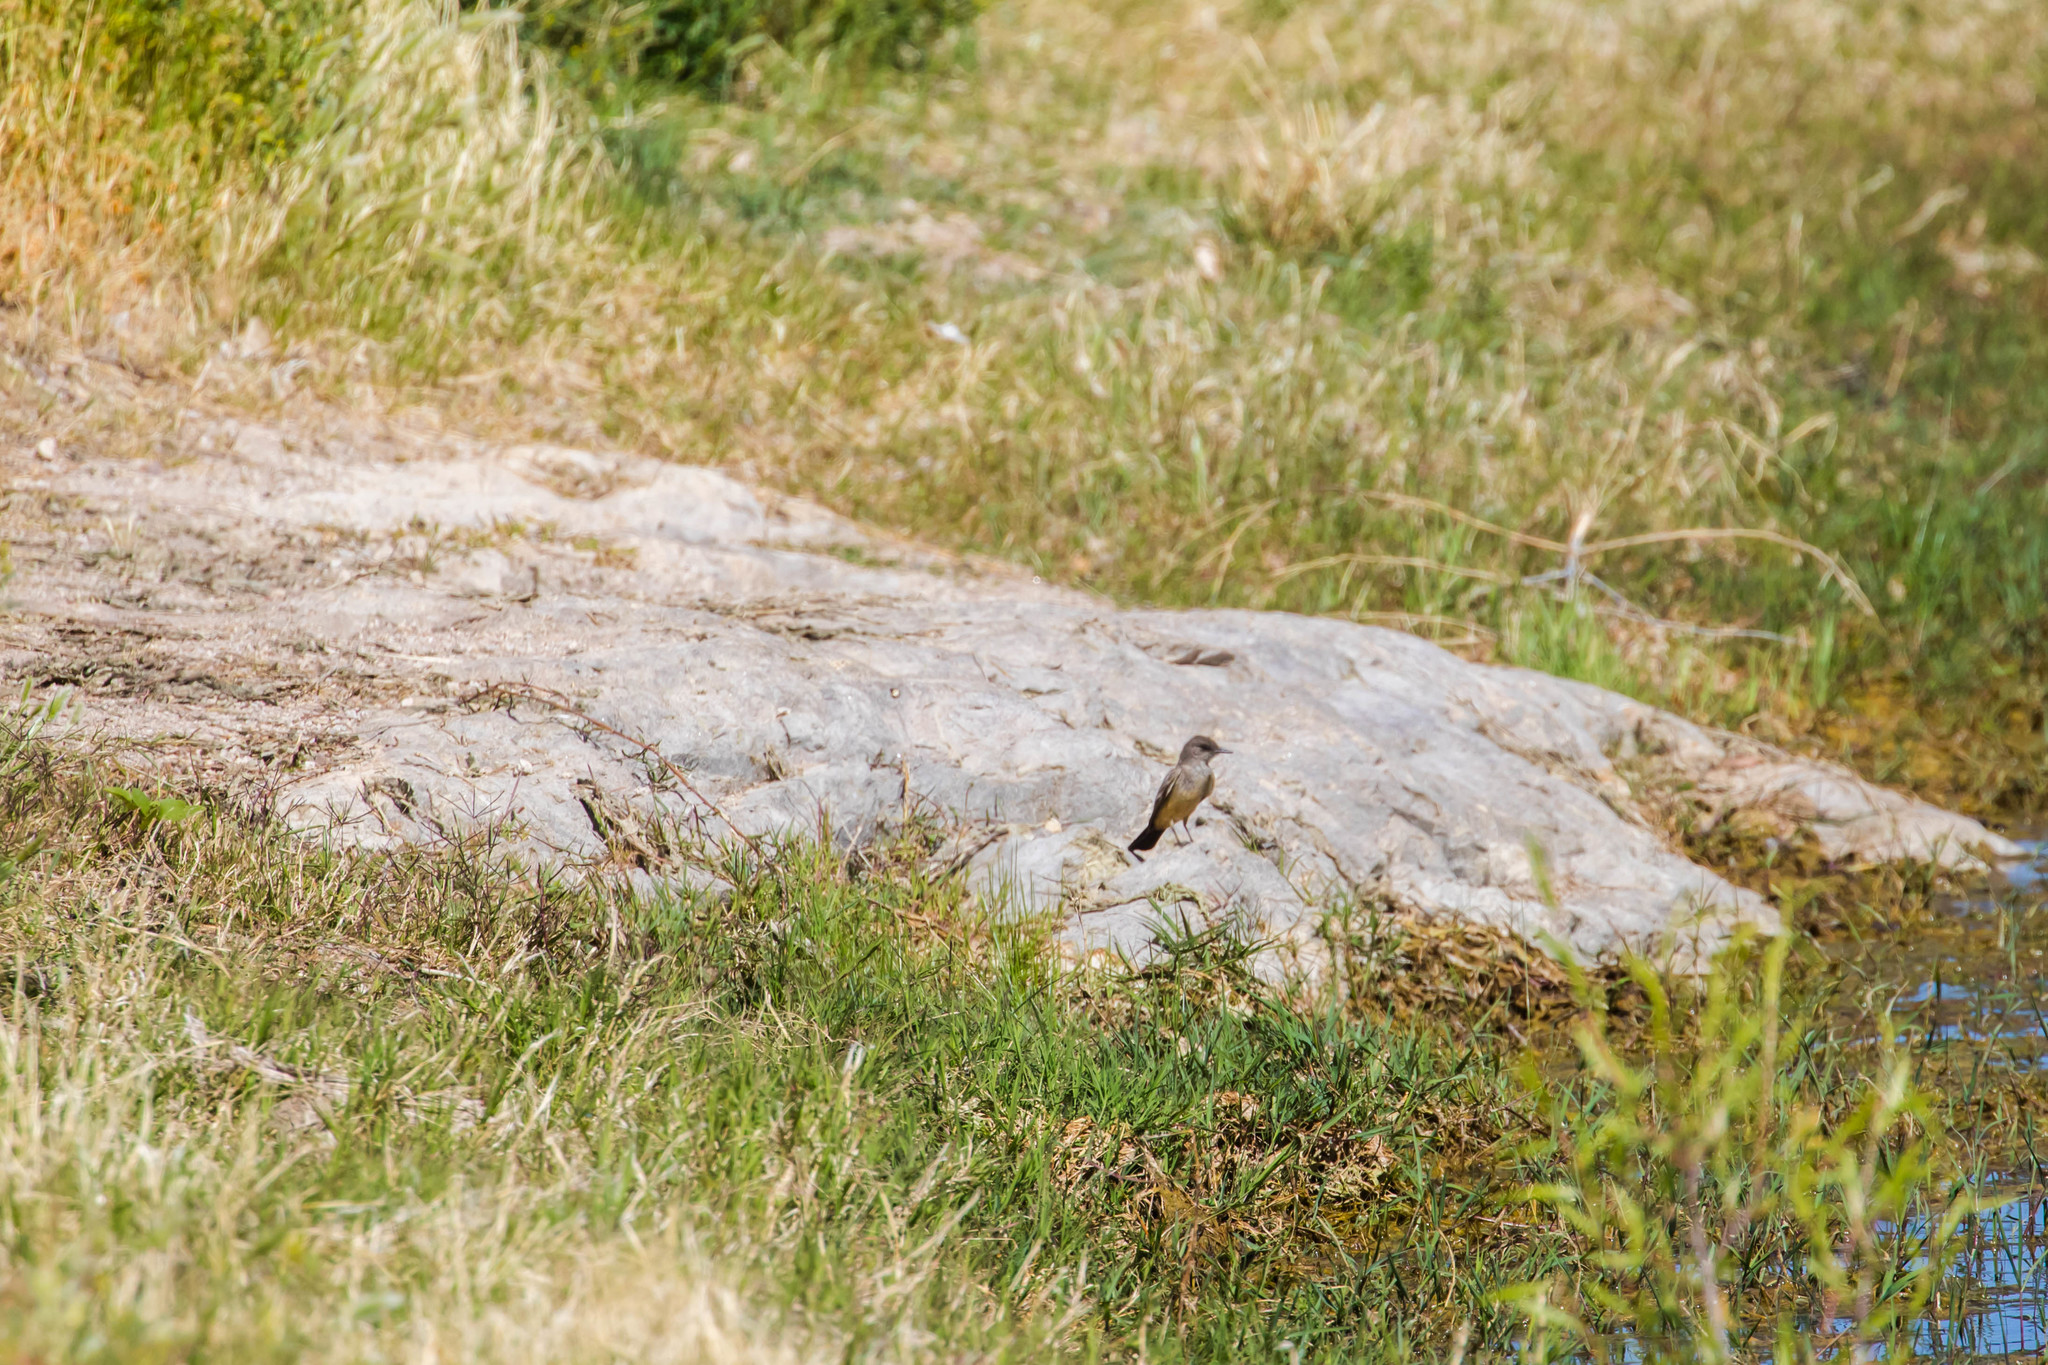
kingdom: Animalia
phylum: Chordata
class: Aves
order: Passeriformes
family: Tyrannidae
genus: Sayornis
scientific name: Sayornis saya
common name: Say's phoebe
